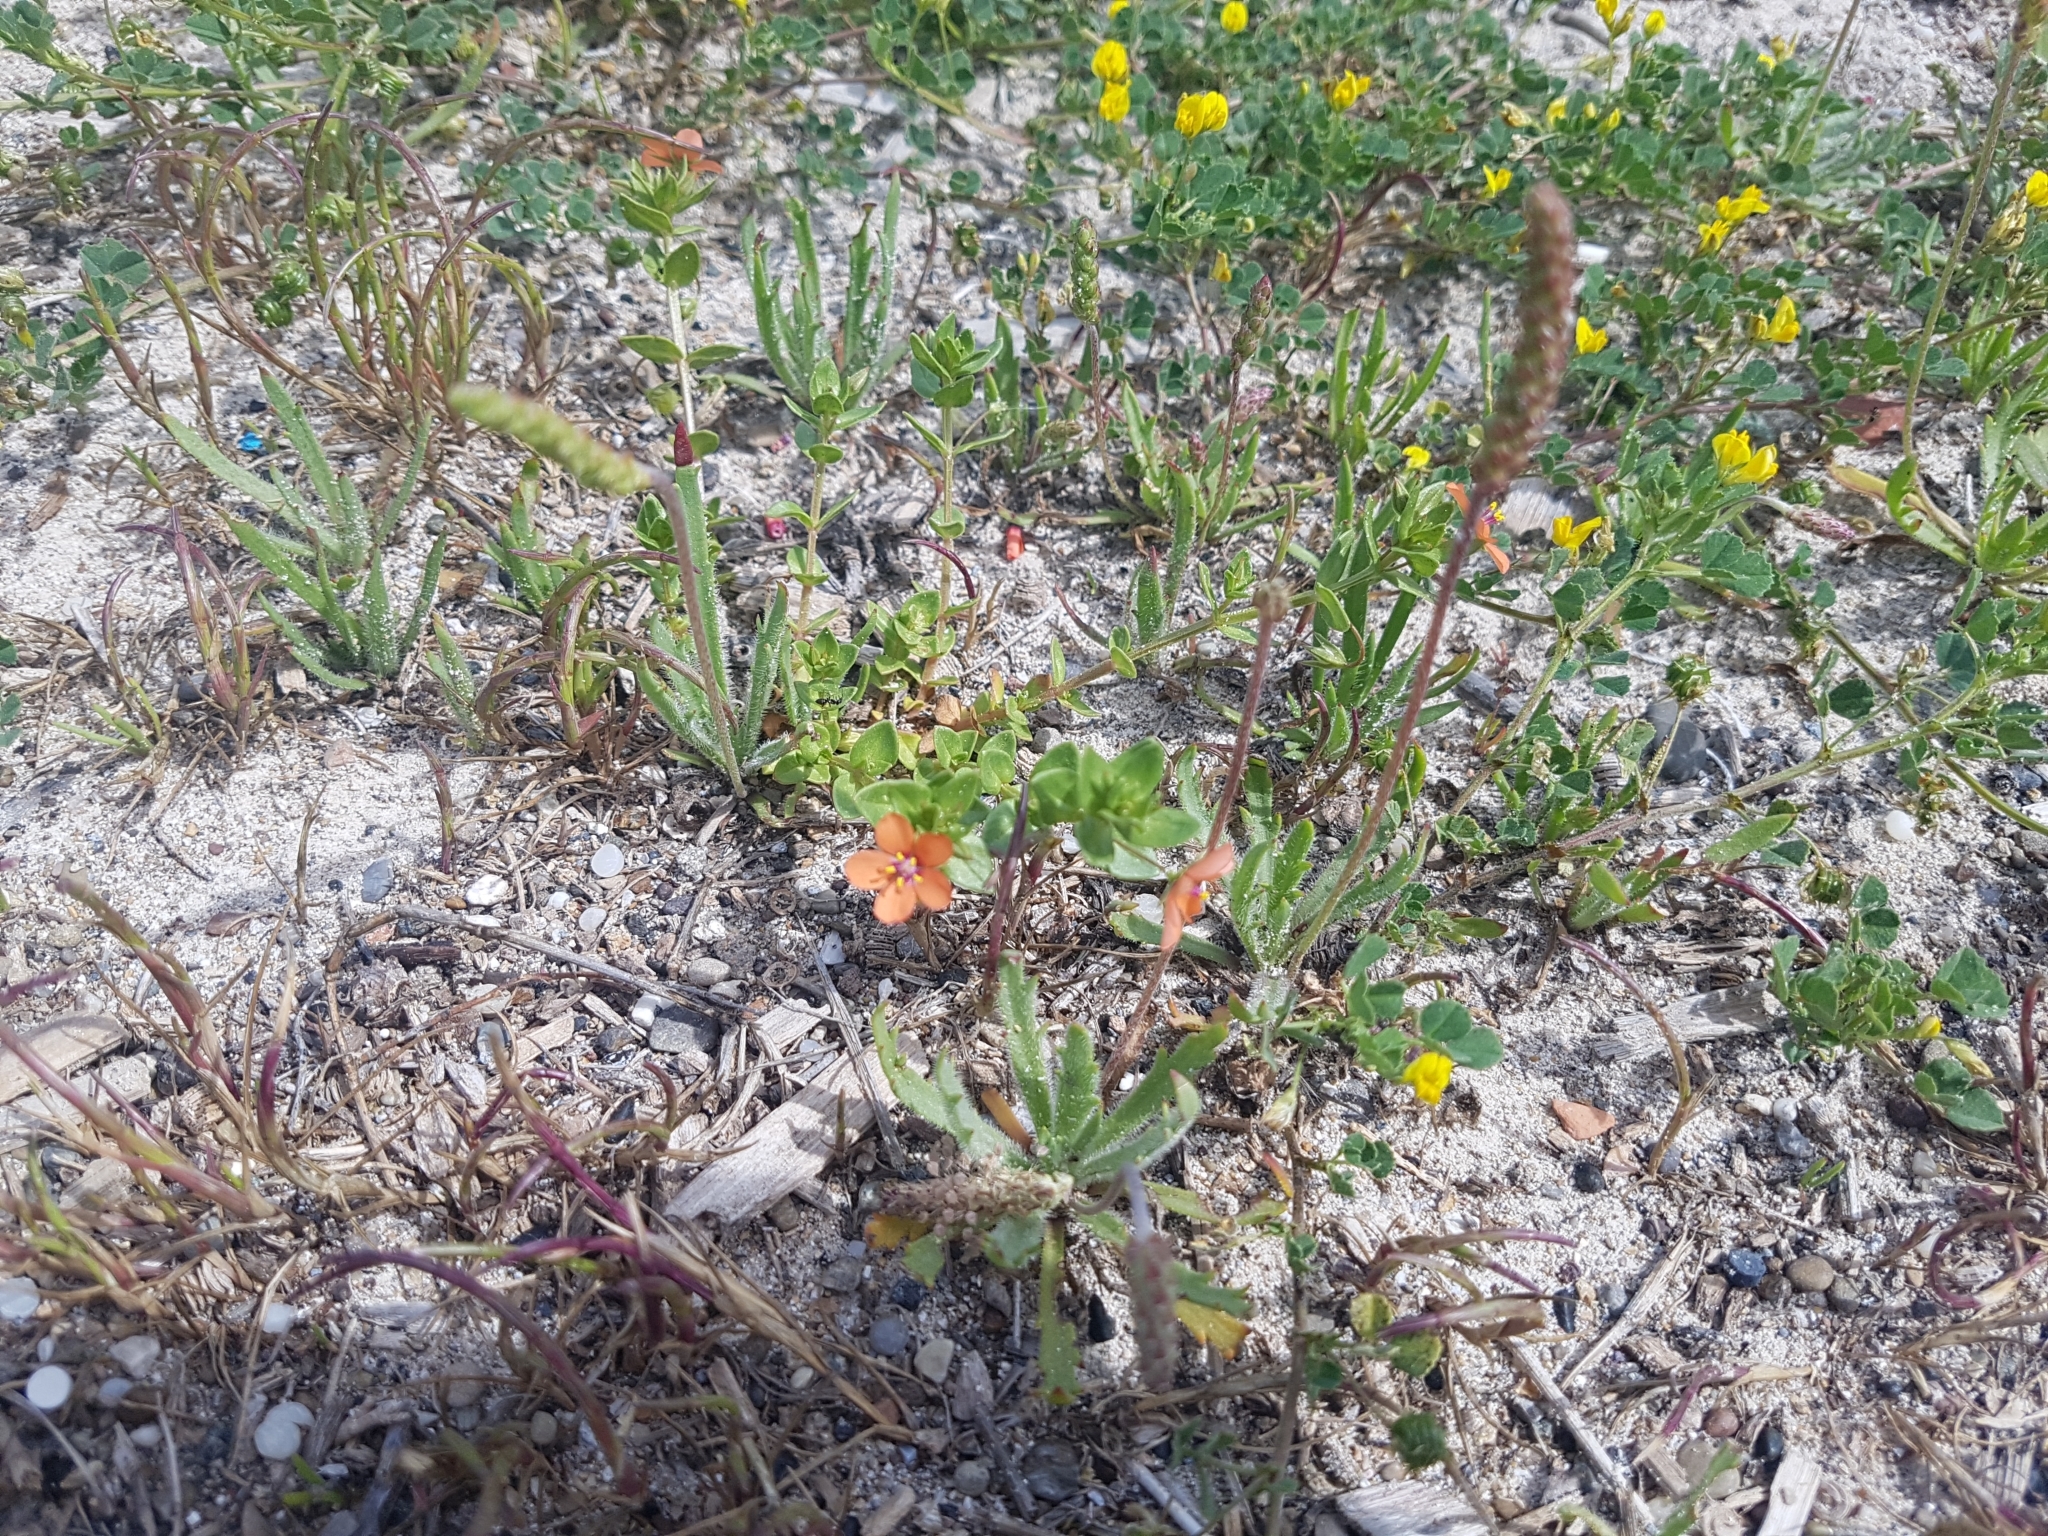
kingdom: Plantae
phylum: Tracheophyta
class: Magnoliopsida
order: Ericales
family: Primulaceae
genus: Lysimachia
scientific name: Lysimachia arvensis
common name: Scarlet pimpernel
